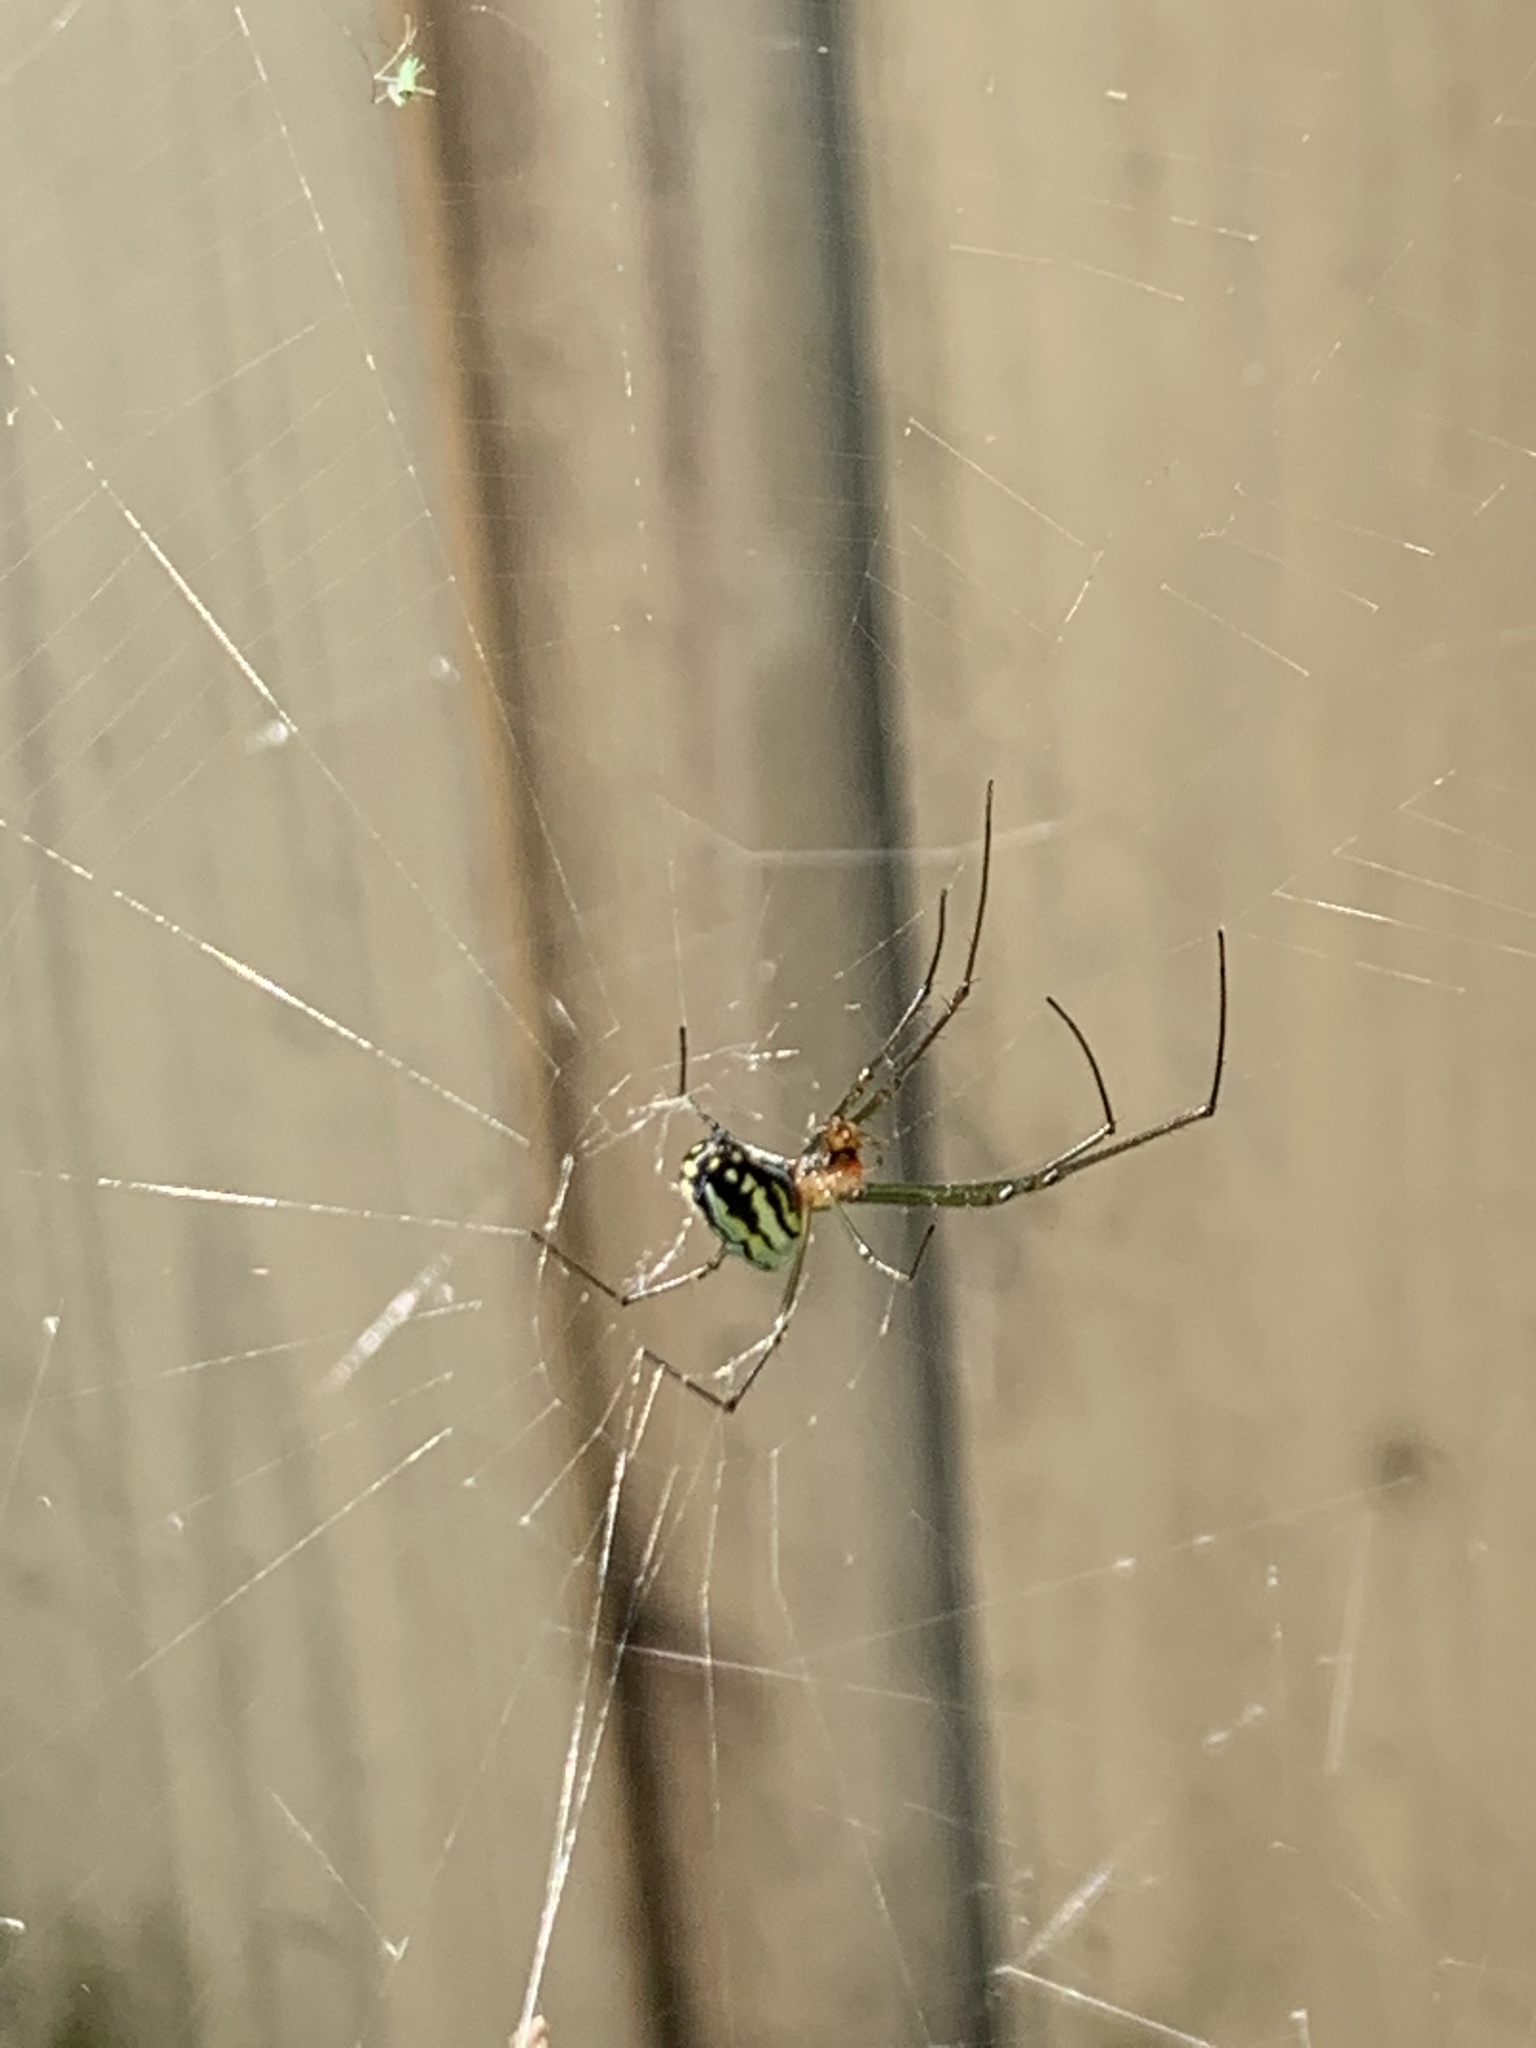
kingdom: Animalia
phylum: Arthropoda
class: Arachnida
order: Araneae
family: Tetragnathidae
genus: Leucauge
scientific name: Leucauge argyra
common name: Longjawed orb weavers
